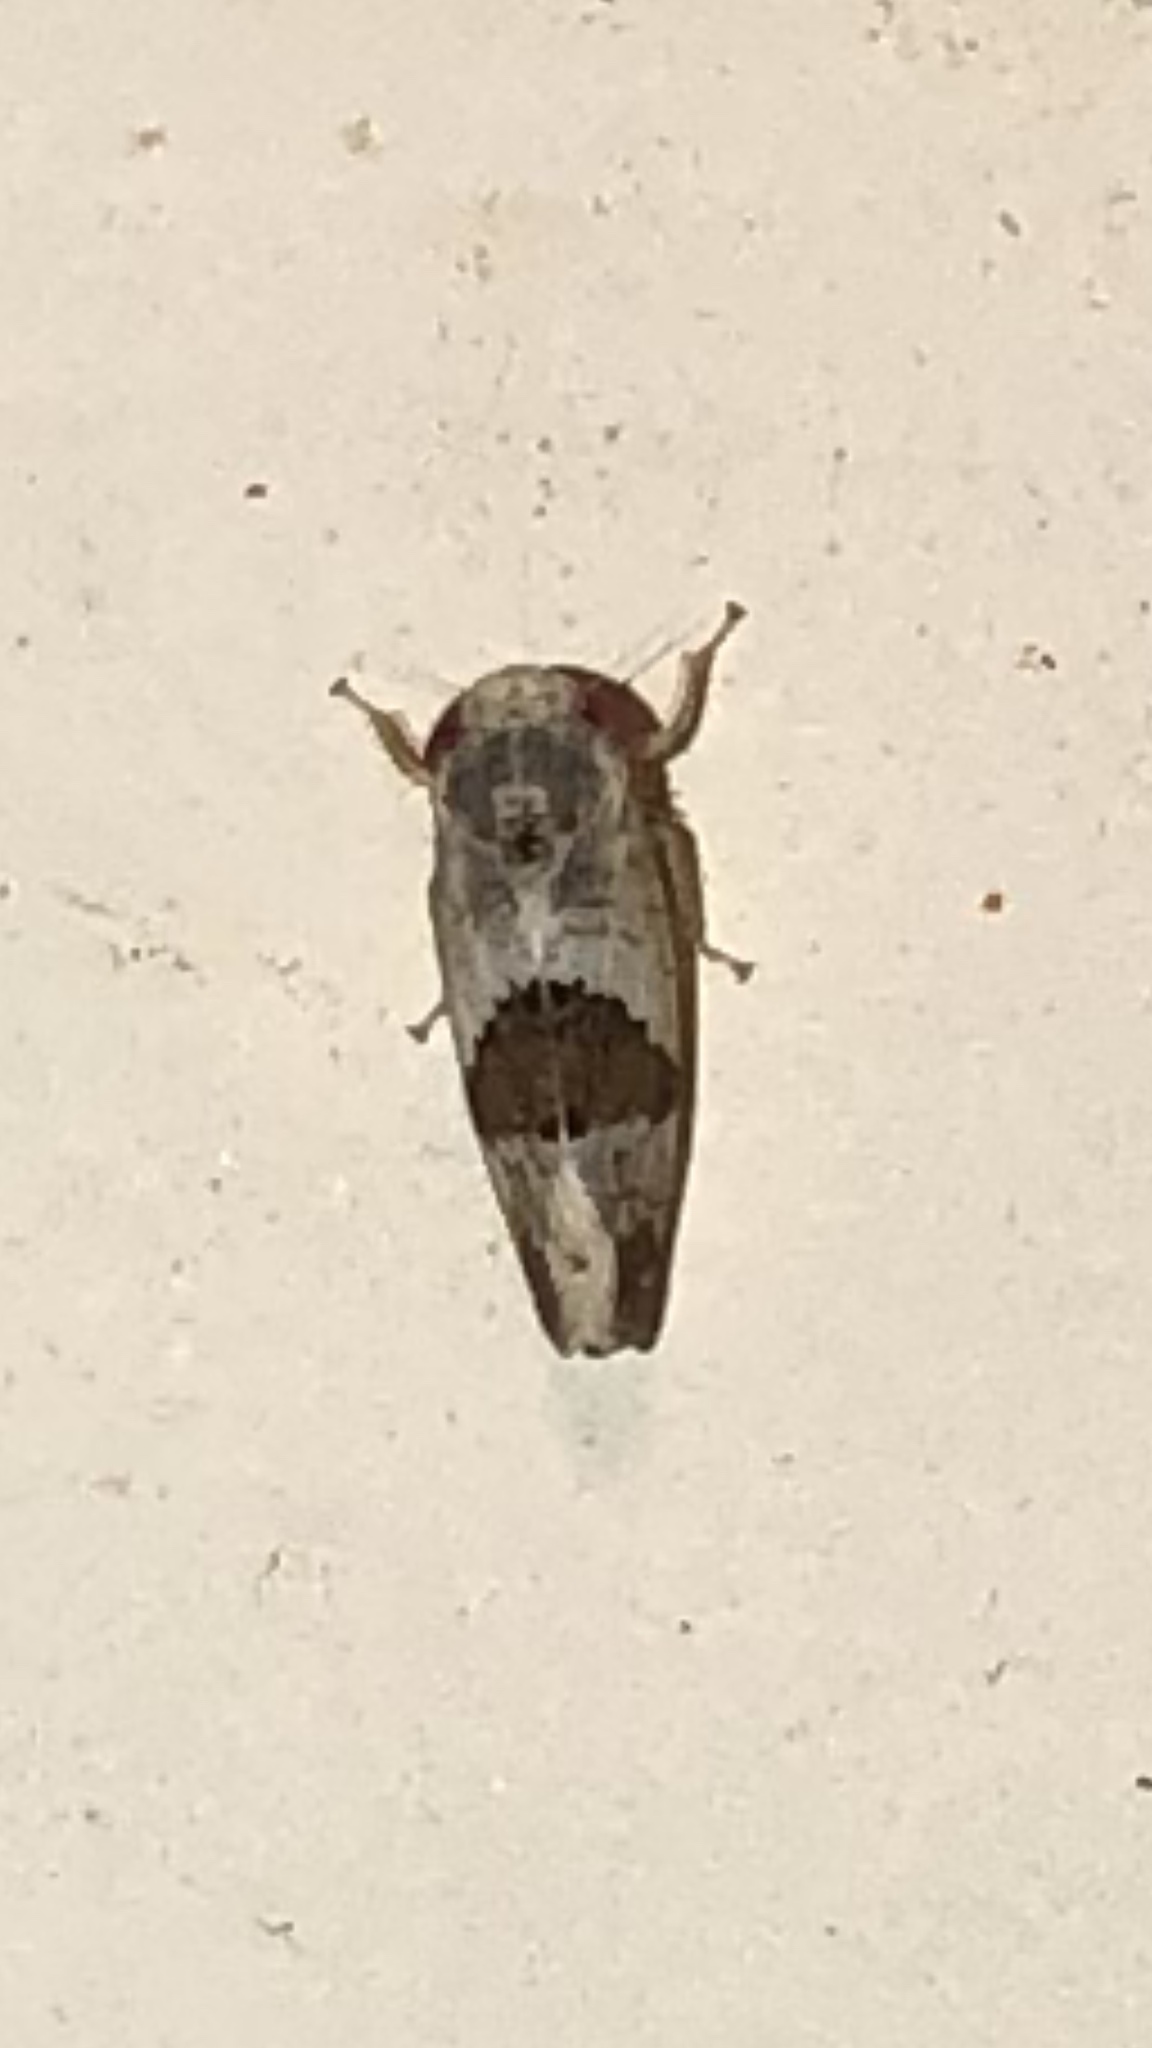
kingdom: Animalia
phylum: Arthropoda
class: Insecta
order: Hemiptera
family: Cicadellidae
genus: Norvellina
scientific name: Norvellina seminuda
